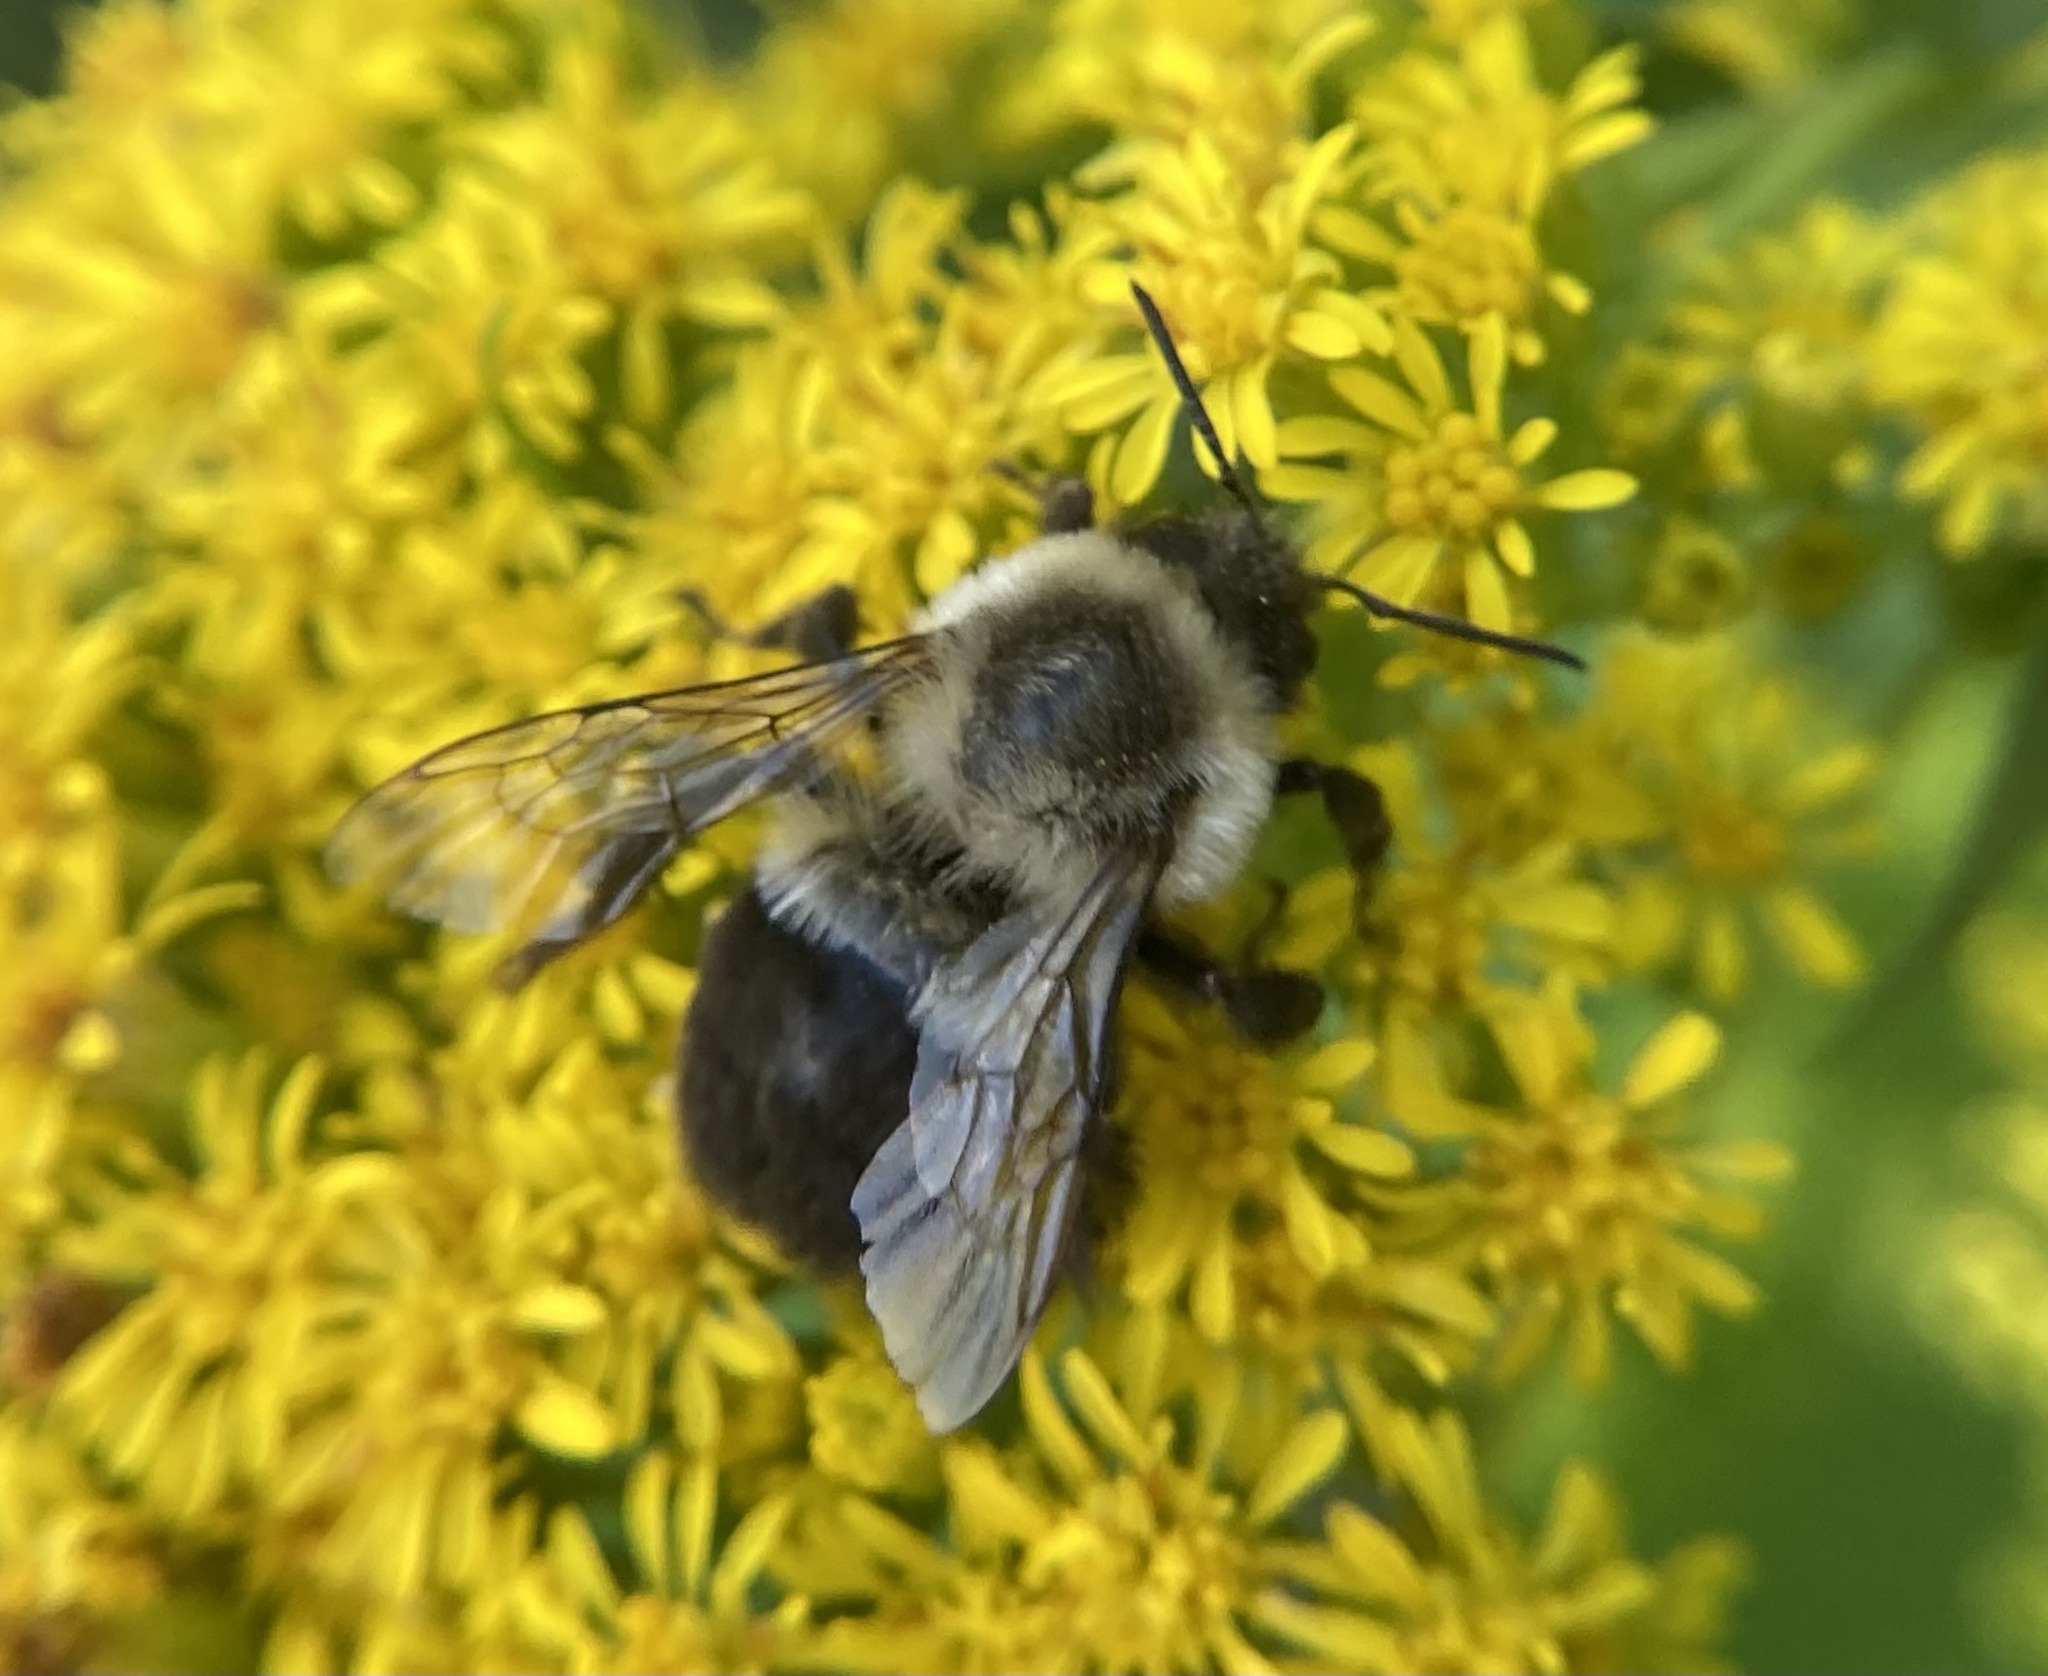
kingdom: Animalia
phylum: Arthropoda
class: Insecta
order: Hymenoptera
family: Apidae
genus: Bombus
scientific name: Bombus impatiens
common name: Common eastern bumble bee
